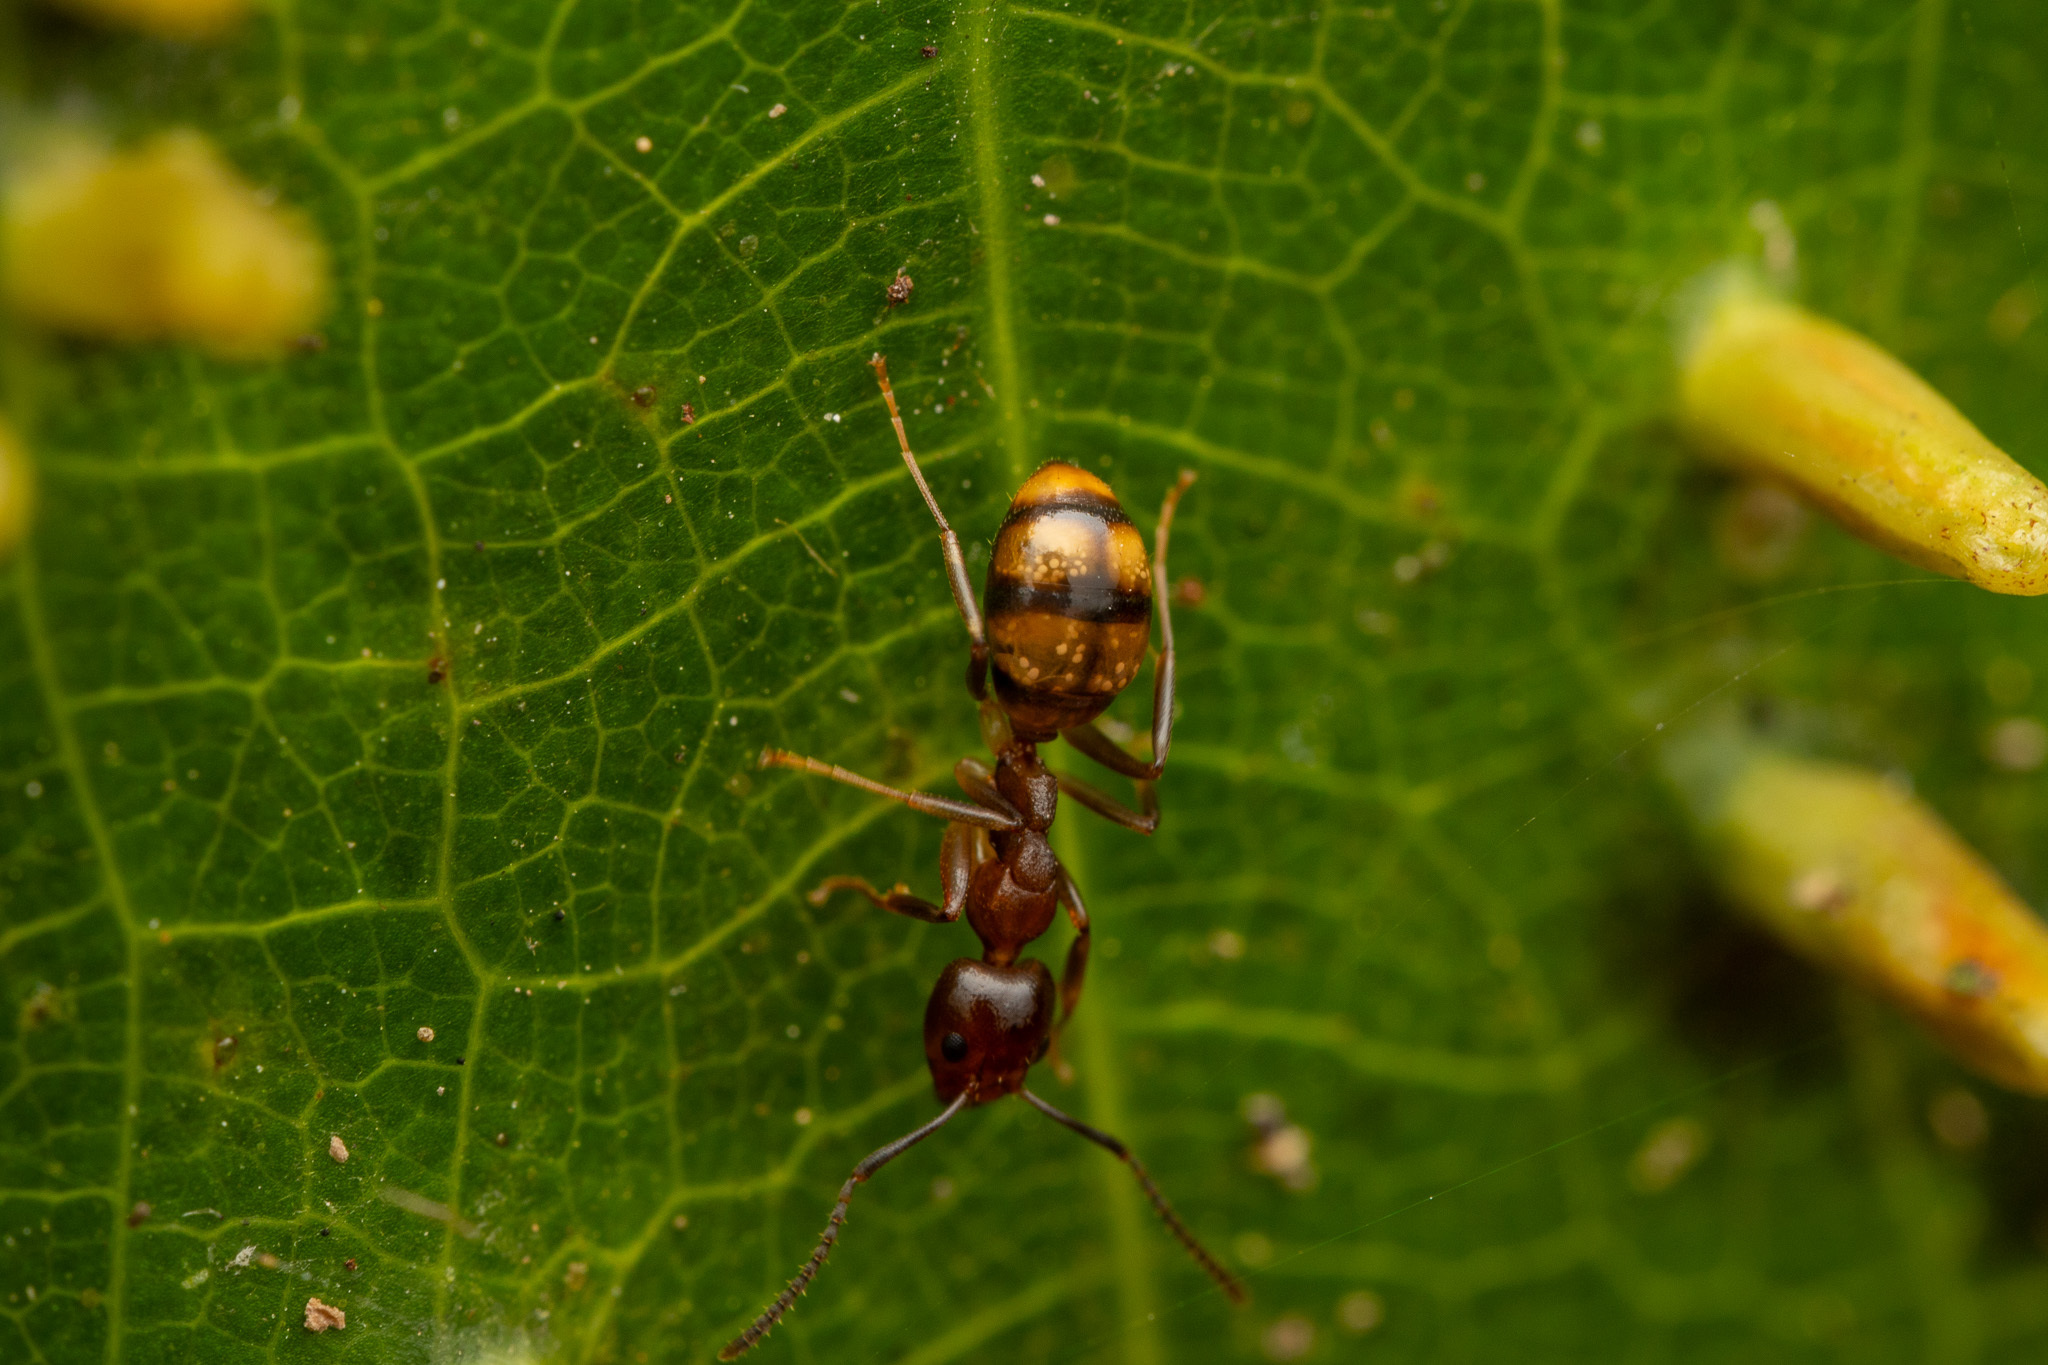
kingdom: Animalia
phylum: Arthropoda
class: Insecta
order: Hymenoptera
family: Formicidae
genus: Dolichoderus
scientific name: Dolichoderus lutosus
